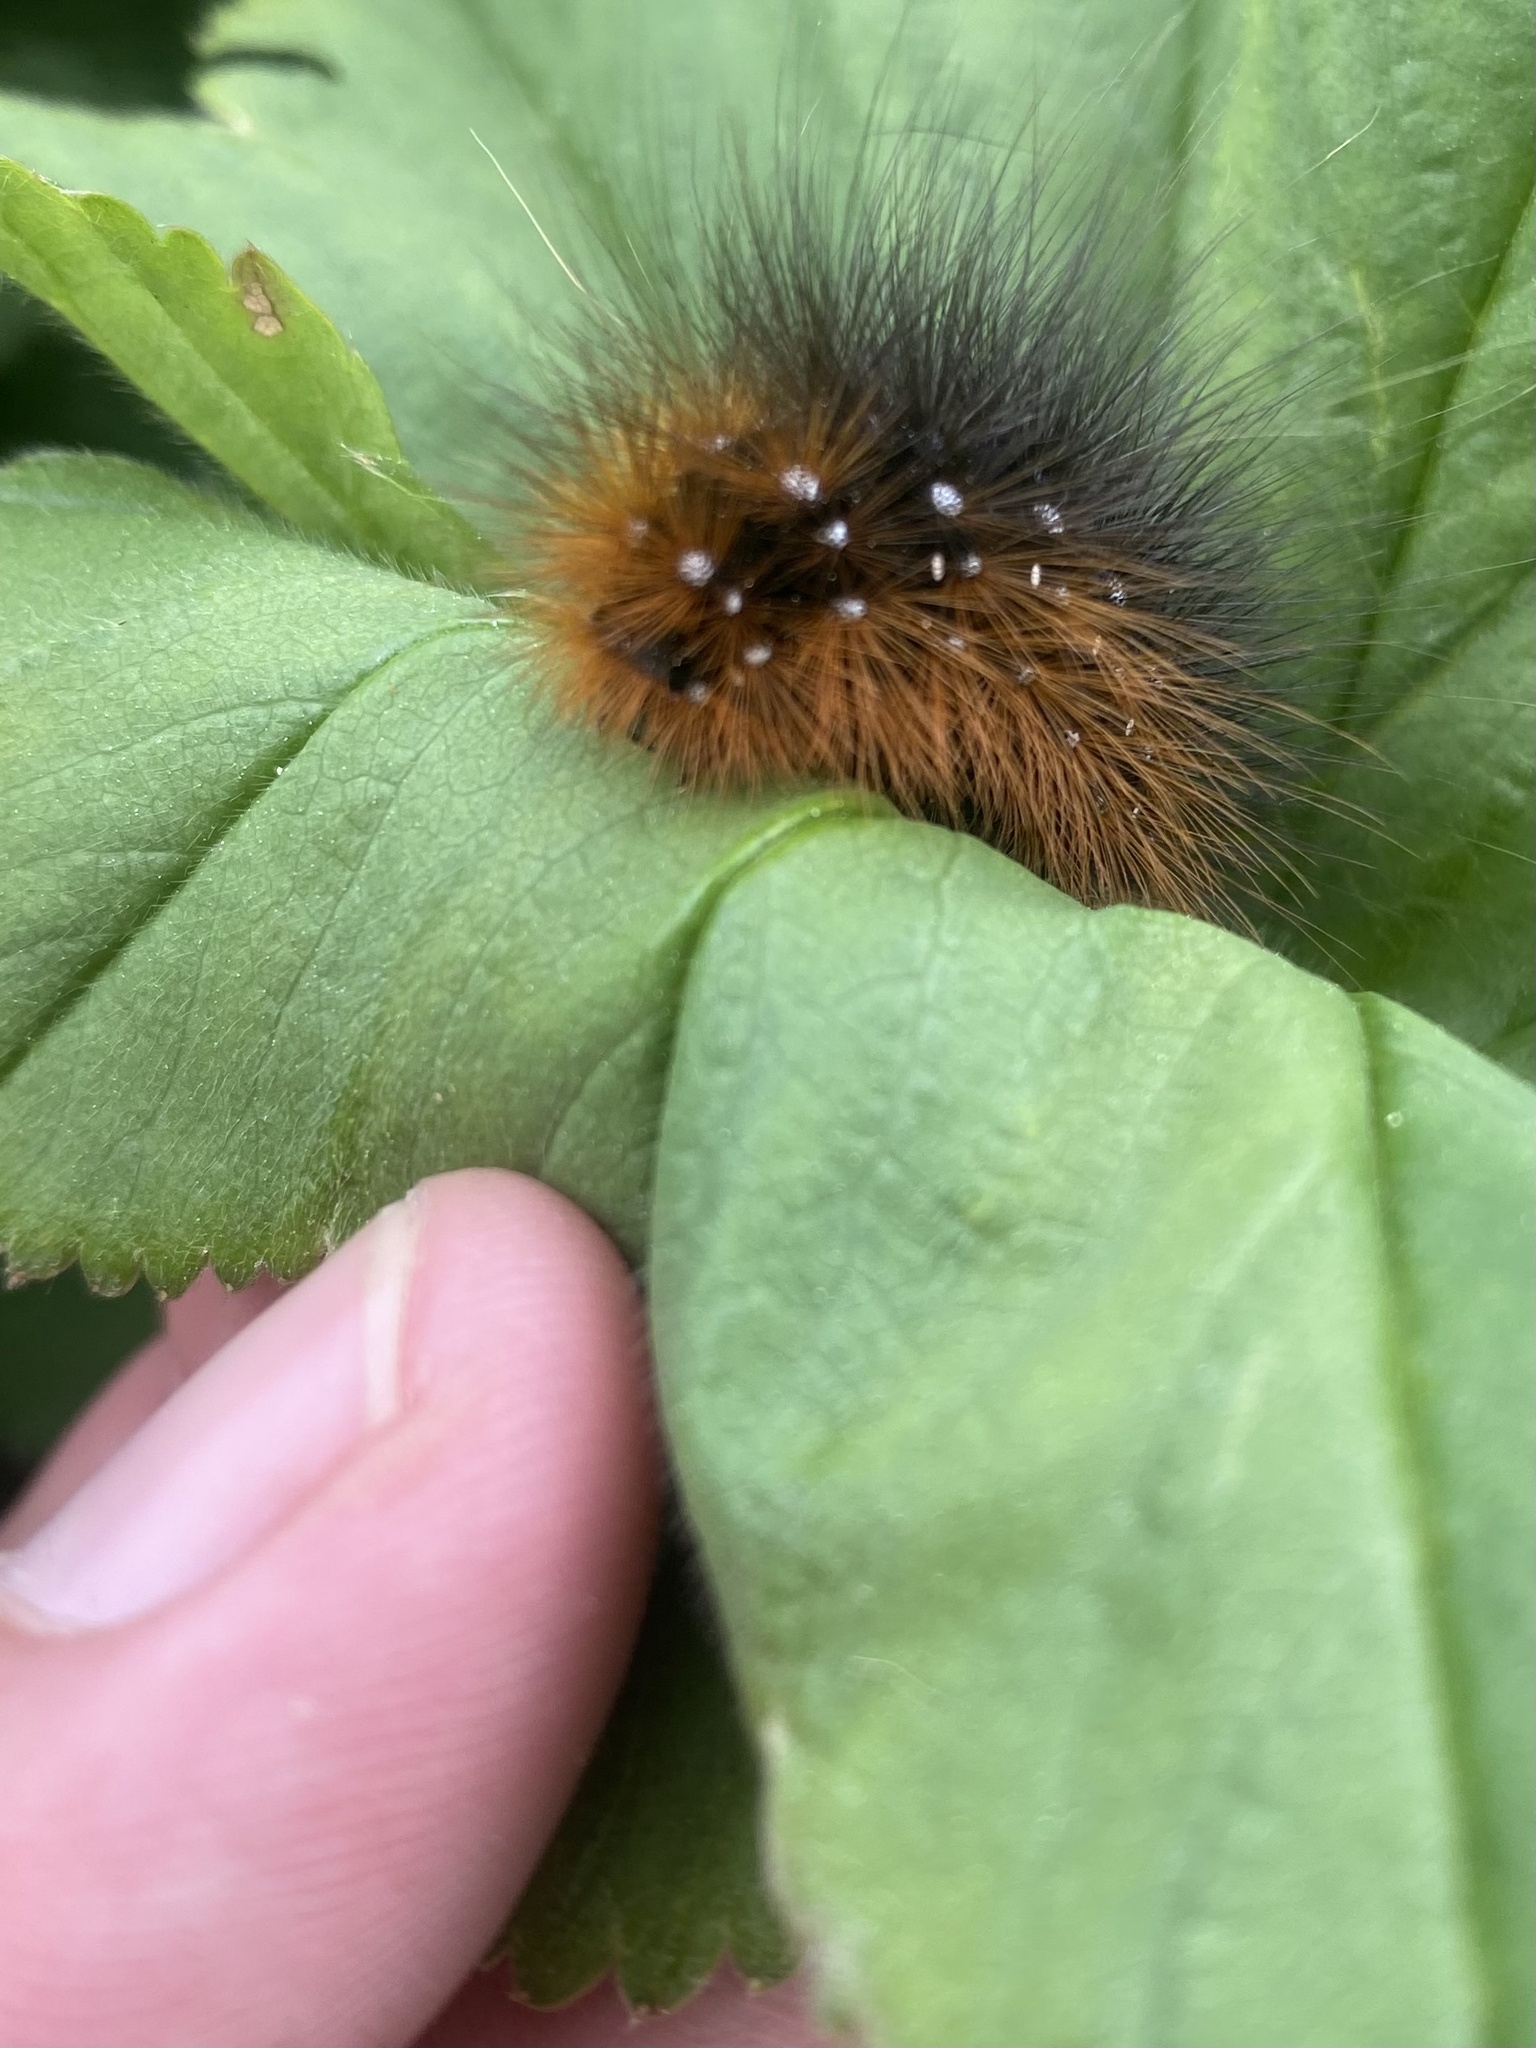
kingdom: Animalia
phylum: Arthropoda
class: Insecta
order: Lepidoptera
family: Erebidae
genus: Arctia
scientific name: Arctia caja
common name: Garden tiger
